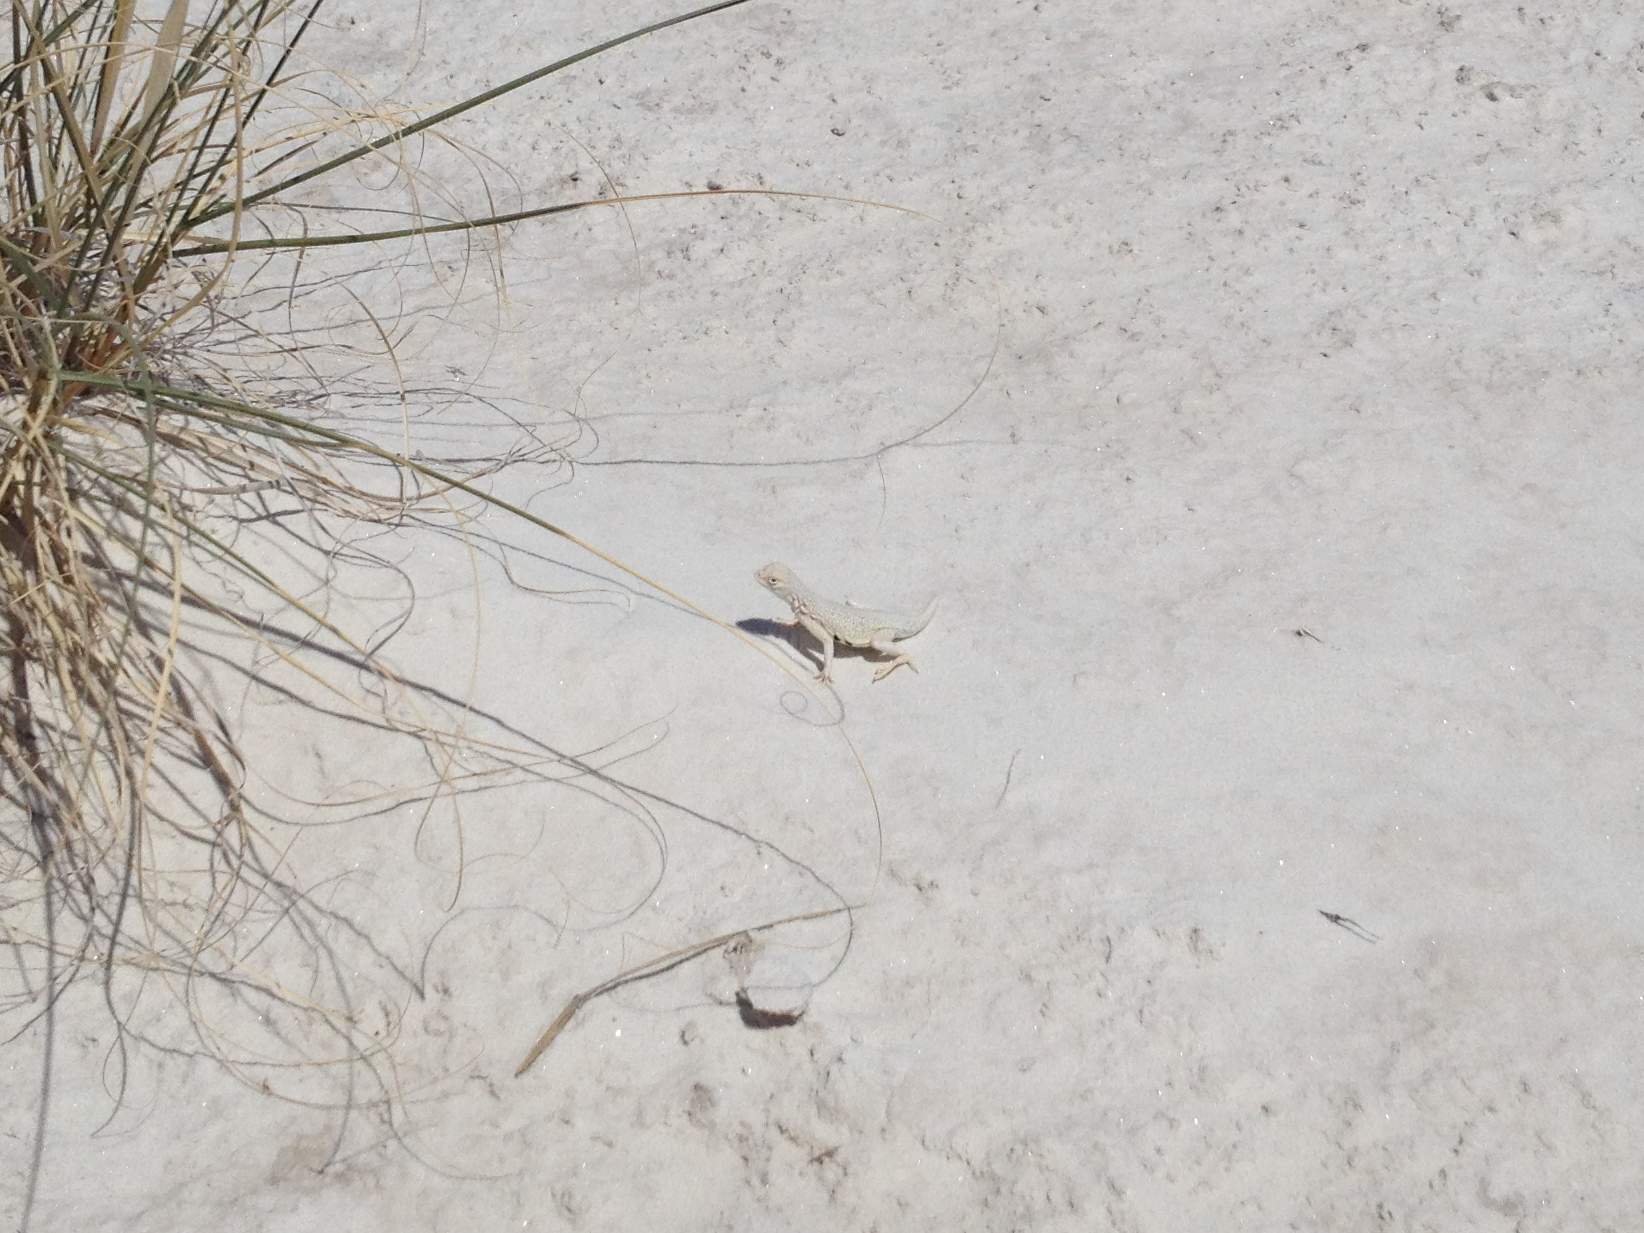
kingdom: Animalia
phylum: Chordata
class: Squamata
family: Phrynosomatidae
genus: Holbrookia
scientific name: Holbrookia maculata
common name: Lesser earless lizard
